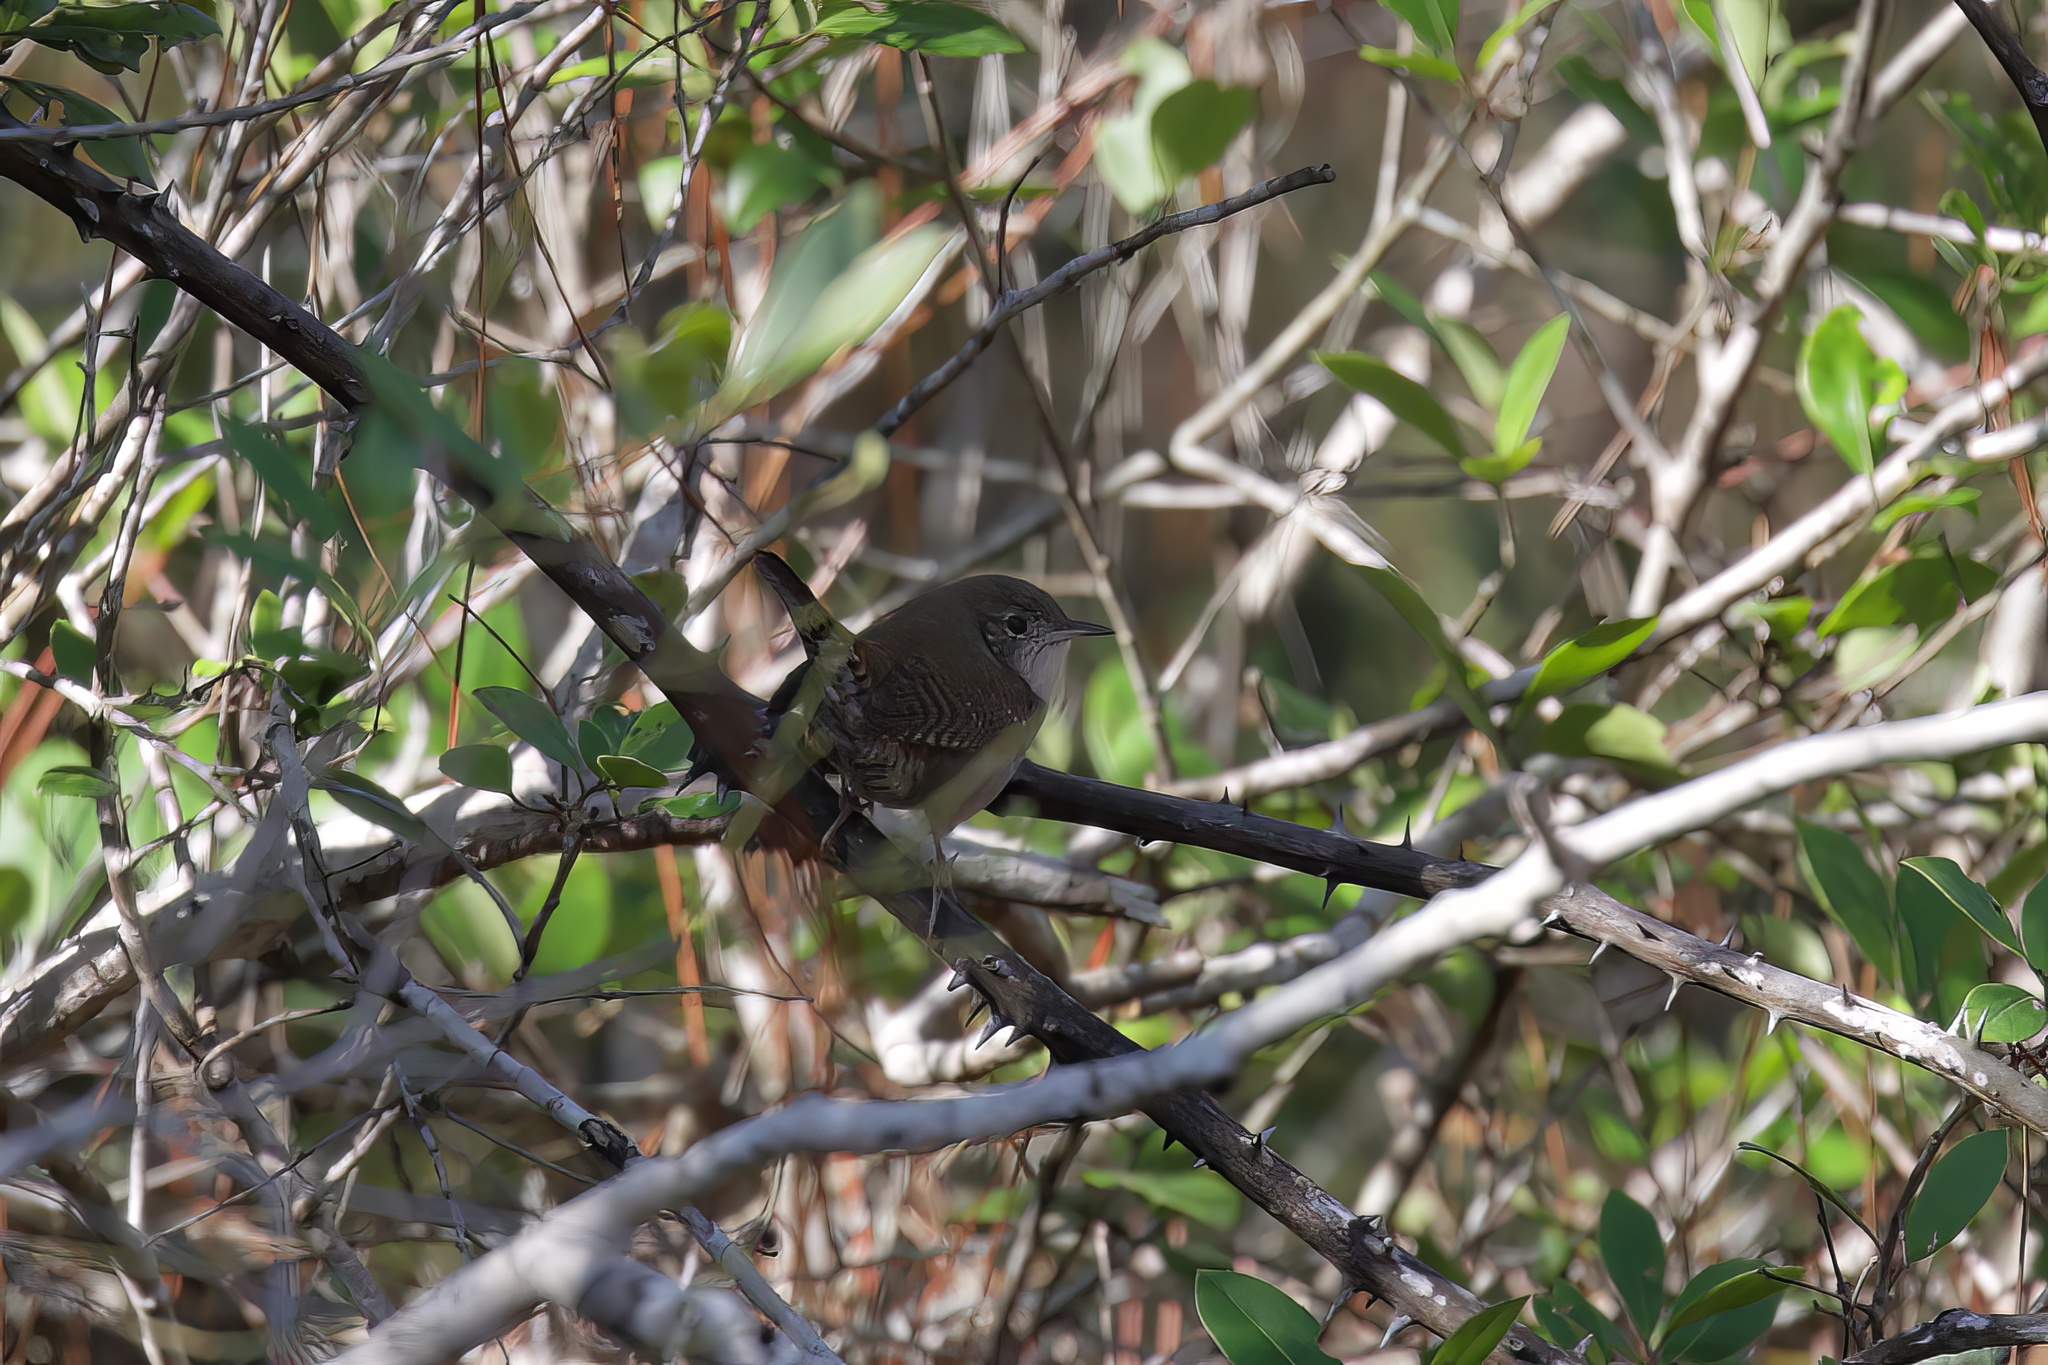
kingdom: Animalia
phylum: Chordata
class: Aves
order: Passeriformes
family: Troglodytidae
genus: Troglodytes
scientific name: Troglodytes aedon
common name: House wren
